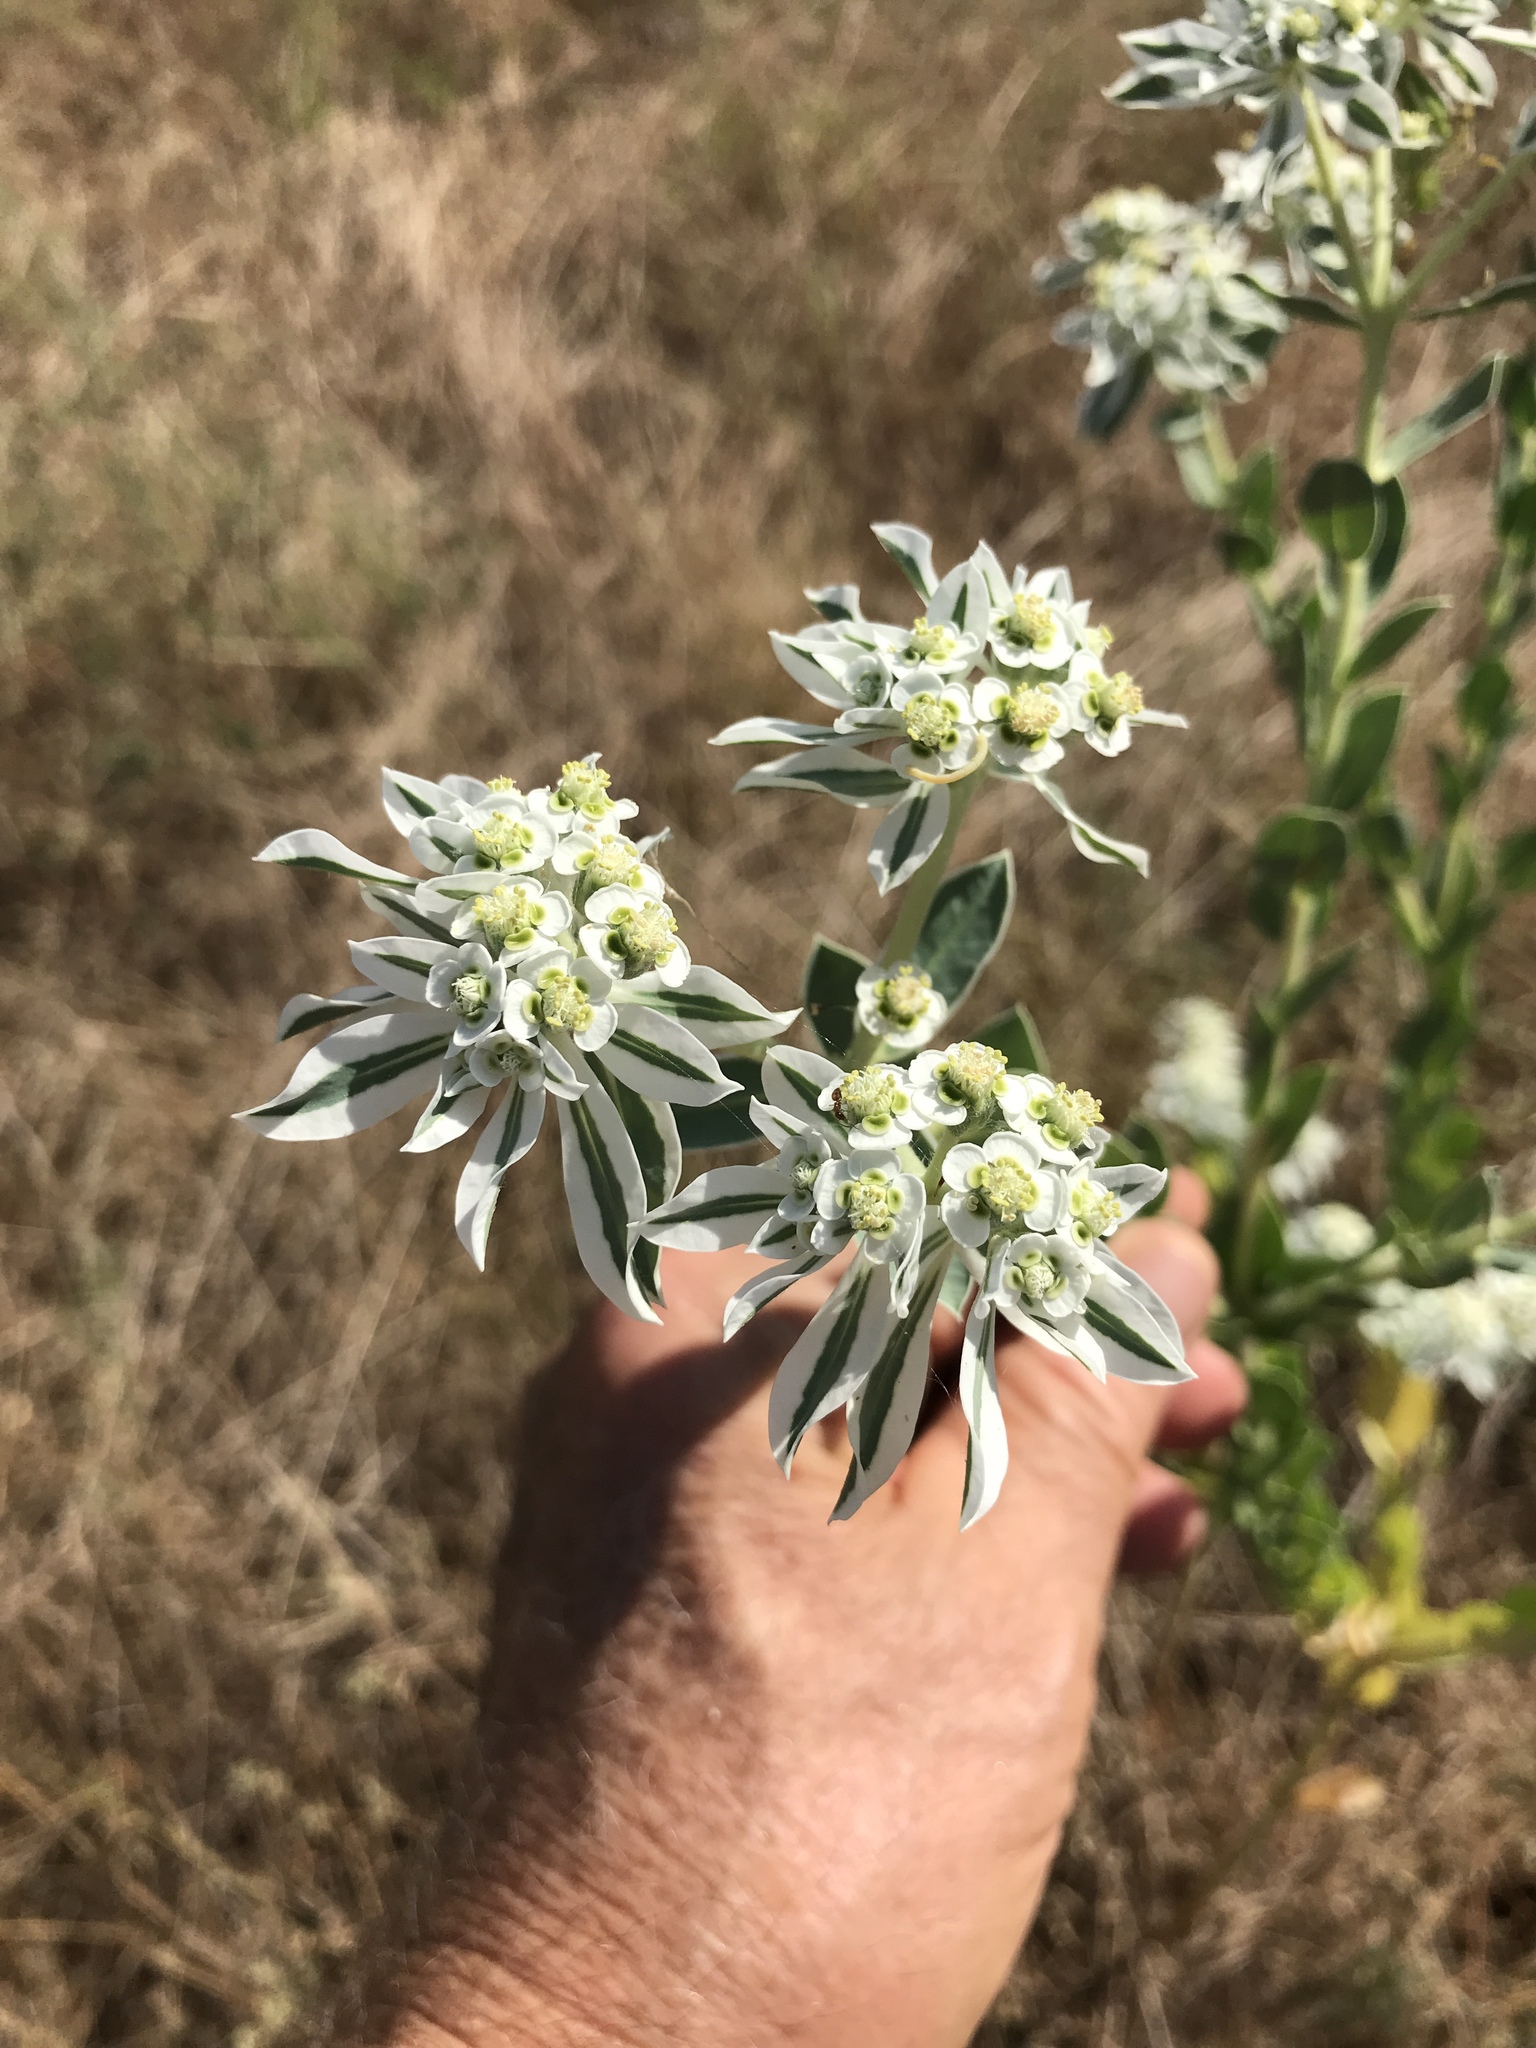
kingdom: Plantae
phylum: Tracheophyta
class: Magnoliopsida
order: Malpighiales
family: Euphorbiaceae
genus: Euphorbia
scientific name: Euphorbia marginata
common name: Ghostweed
